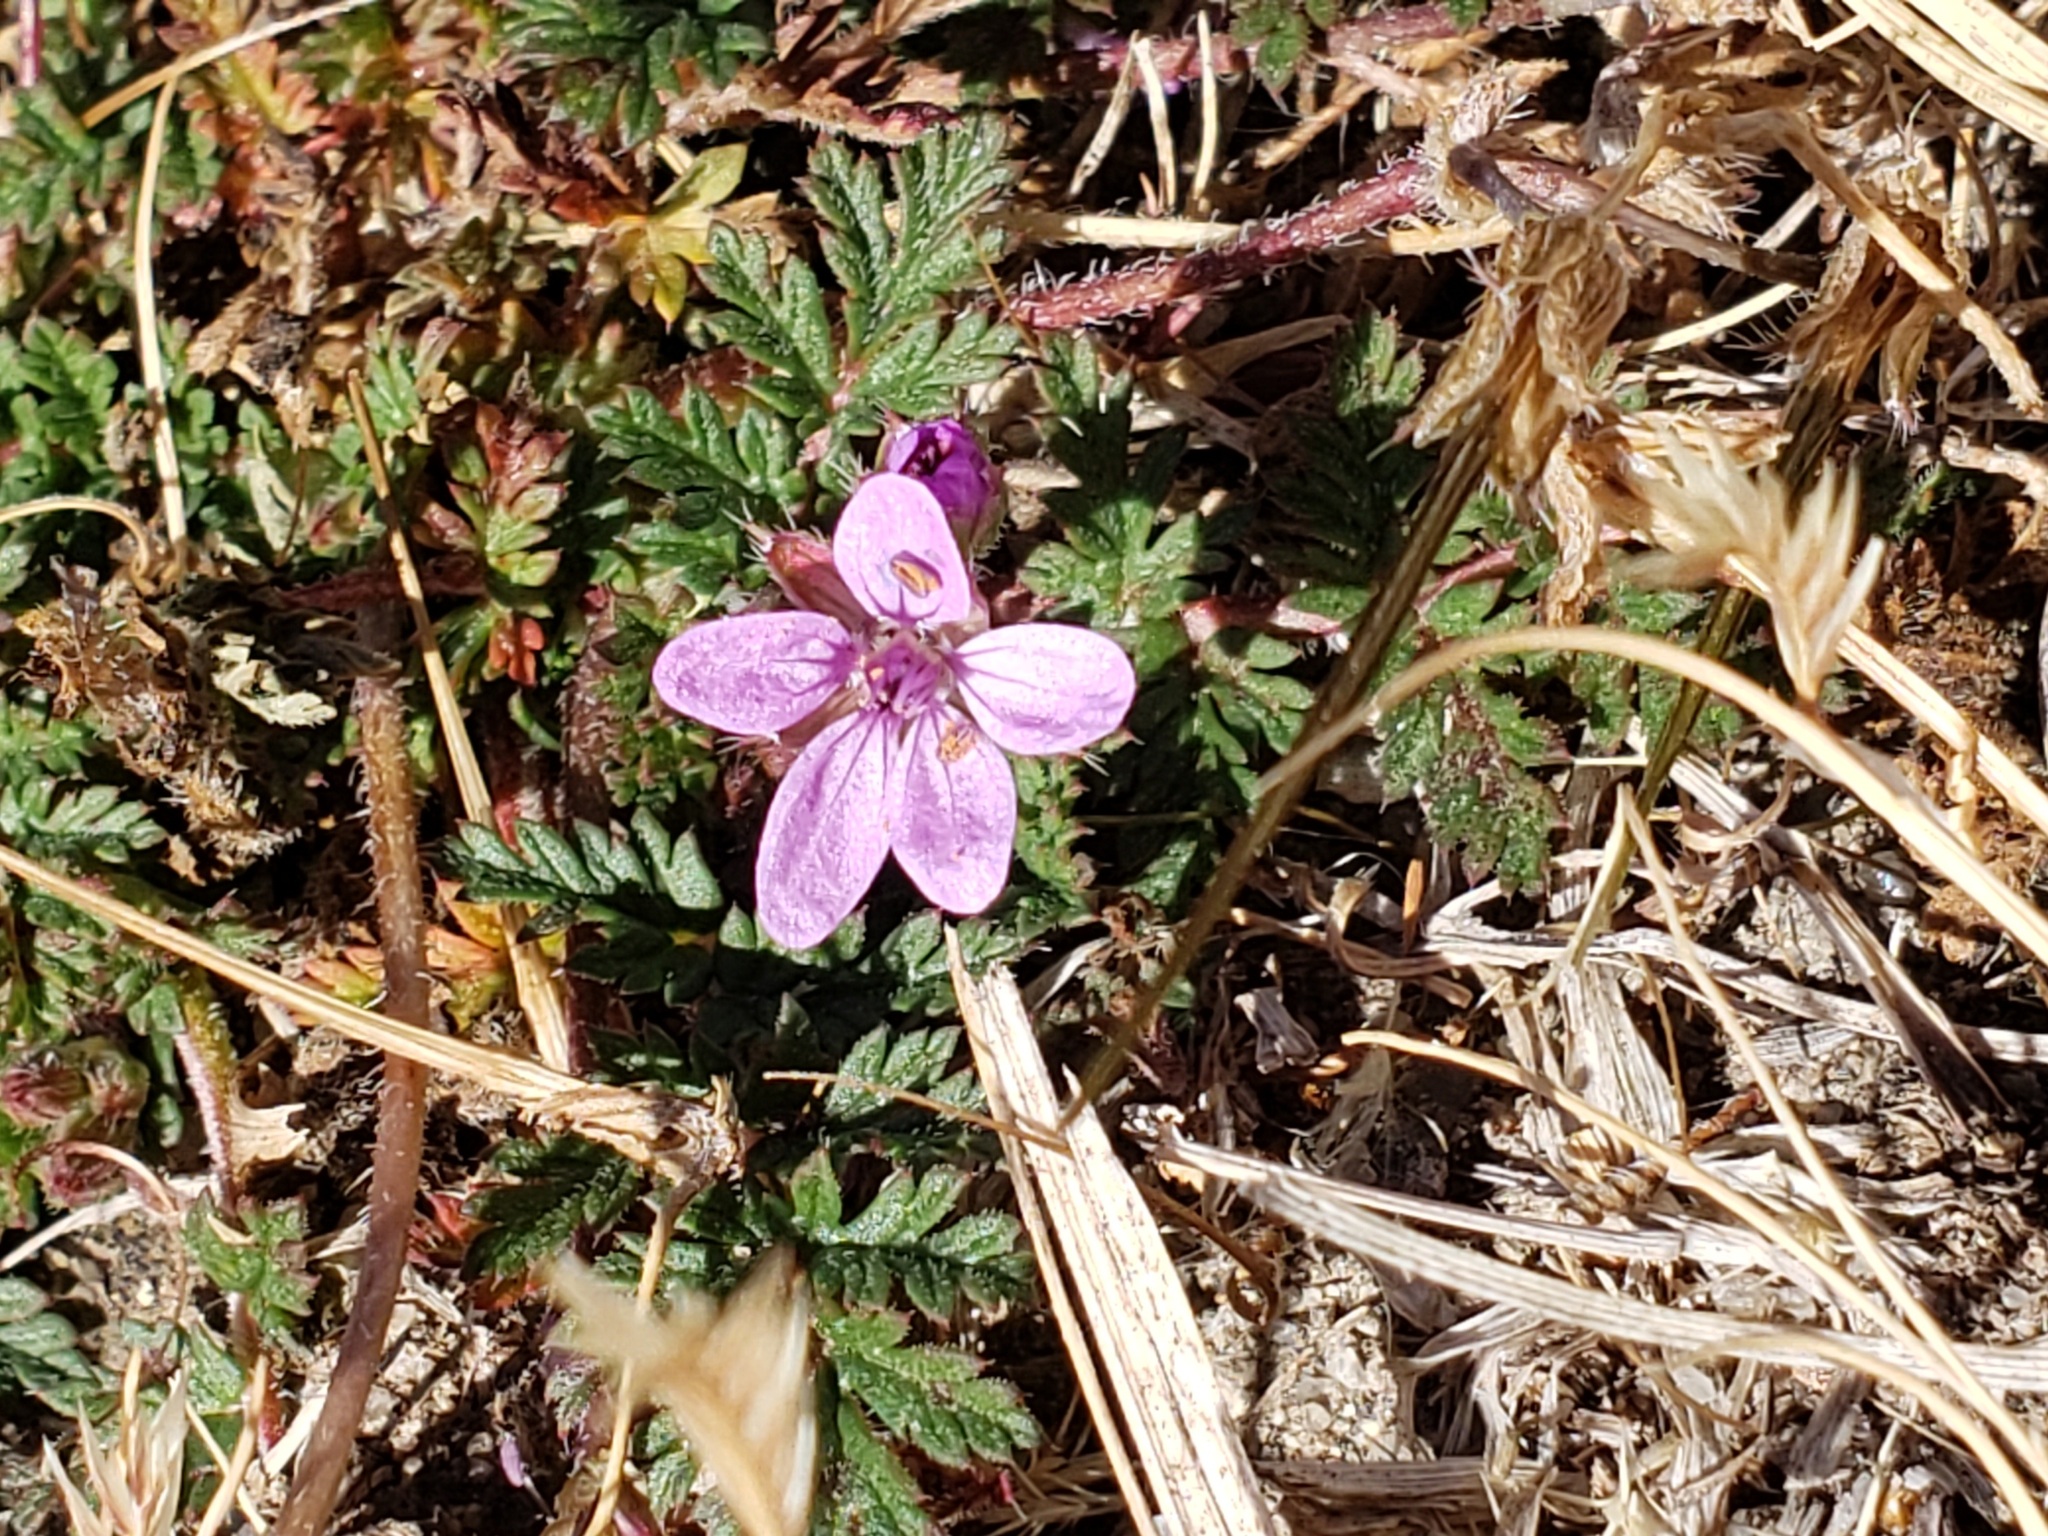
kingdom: Plantae
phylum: Tracheophyta
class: Magnoliopsida
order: Geraniales
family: Geraniaceae
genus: Erodium
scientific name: Erodium cicutarium
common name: Common stork's-bill
